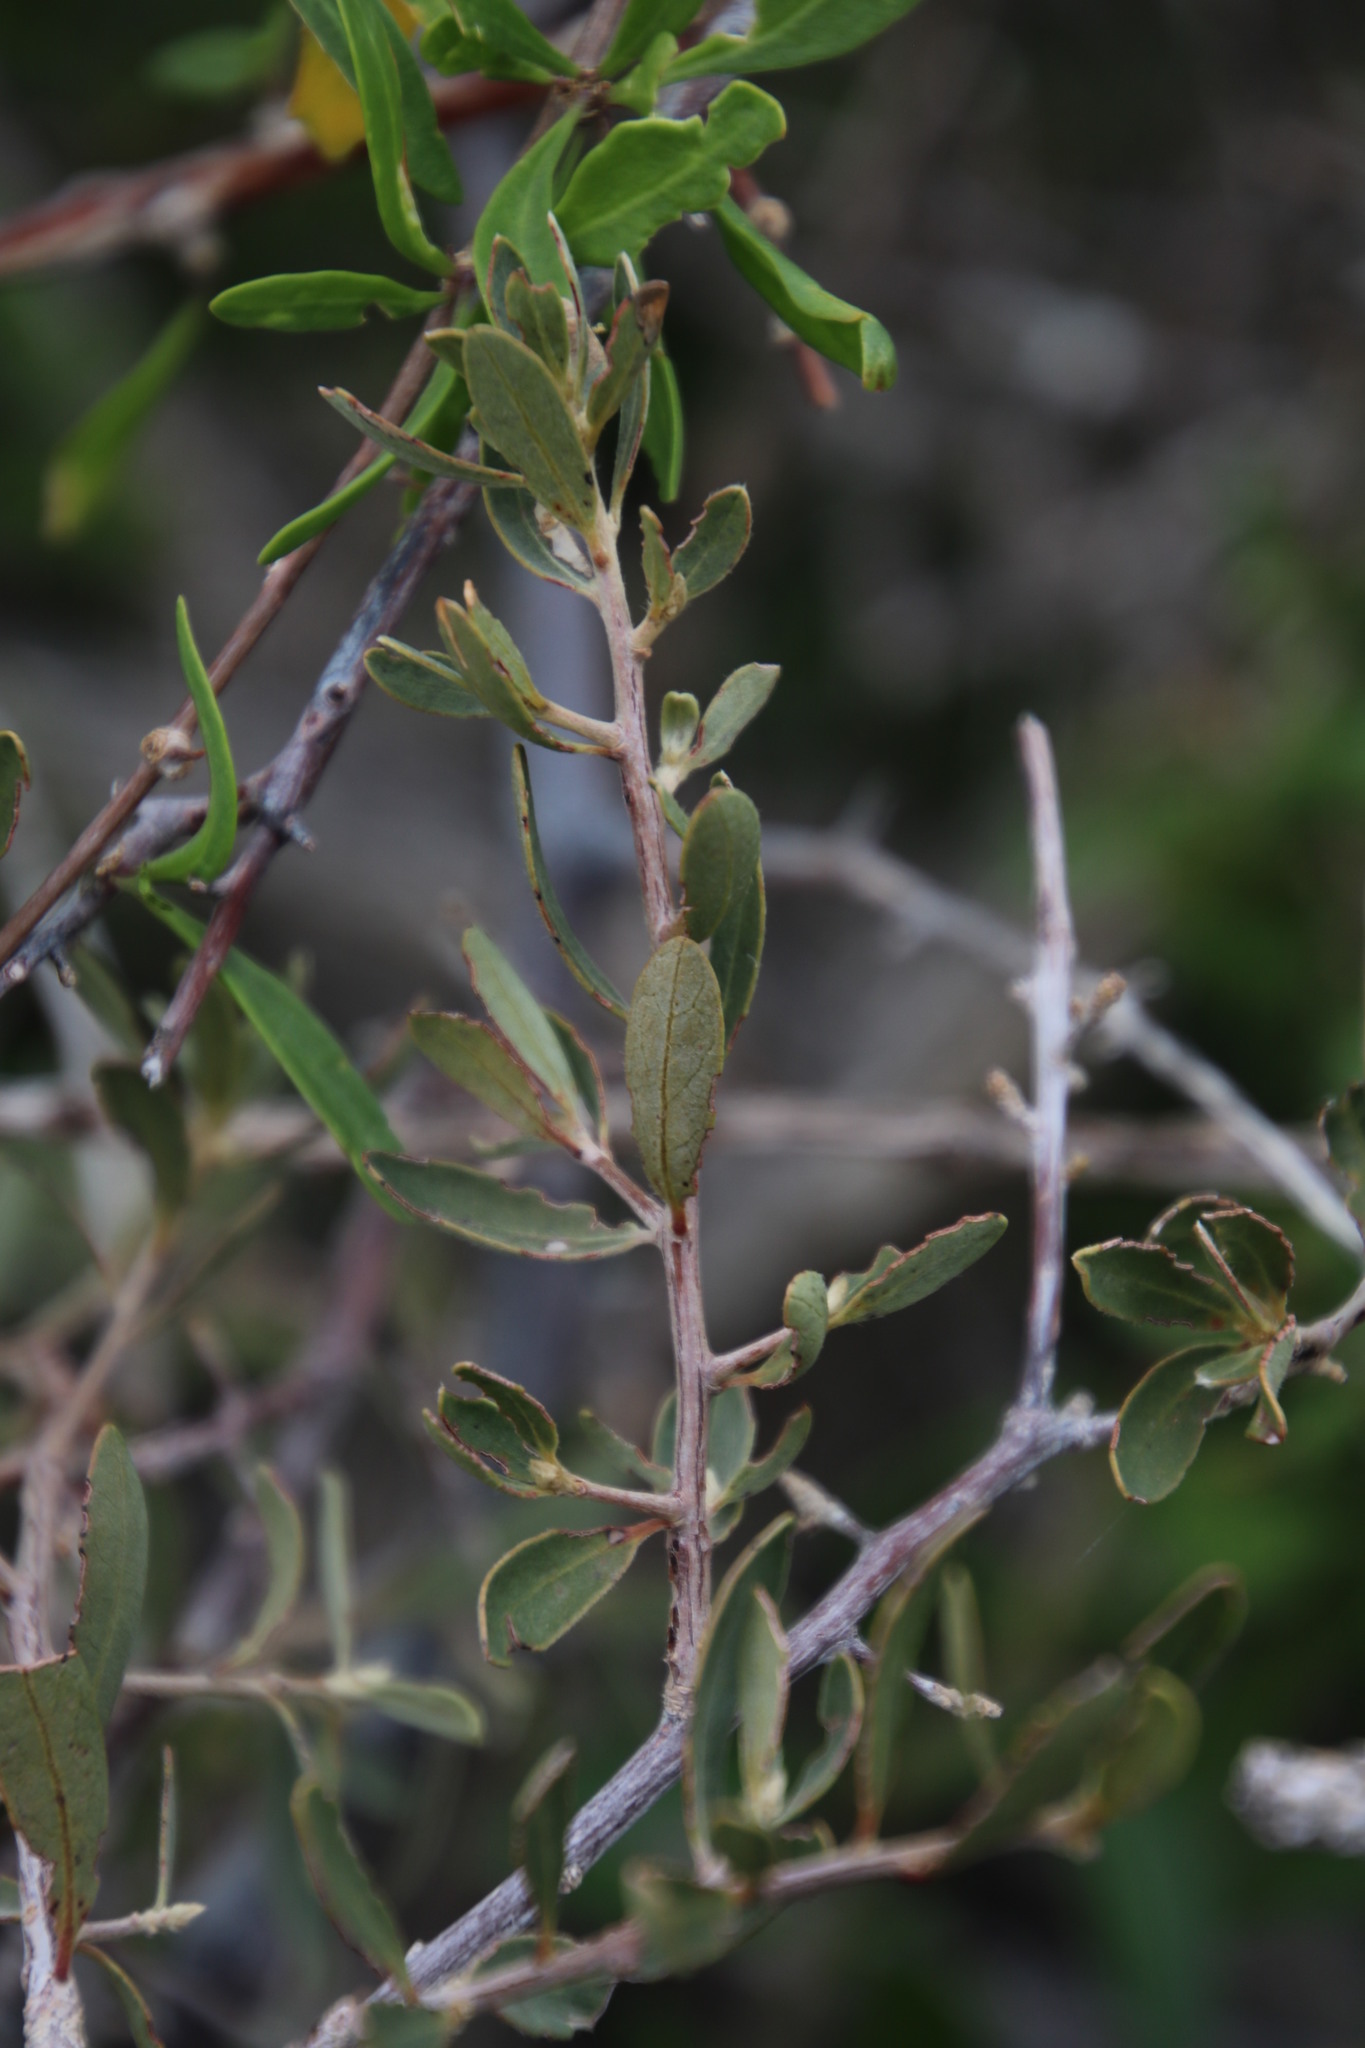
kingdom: Plantae
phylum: Tracheophyta
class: Magnoliopsida
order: Ericales
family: Ebenaceae
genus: Diospyros
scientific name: Diospyros lycioides
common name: Red star apple
